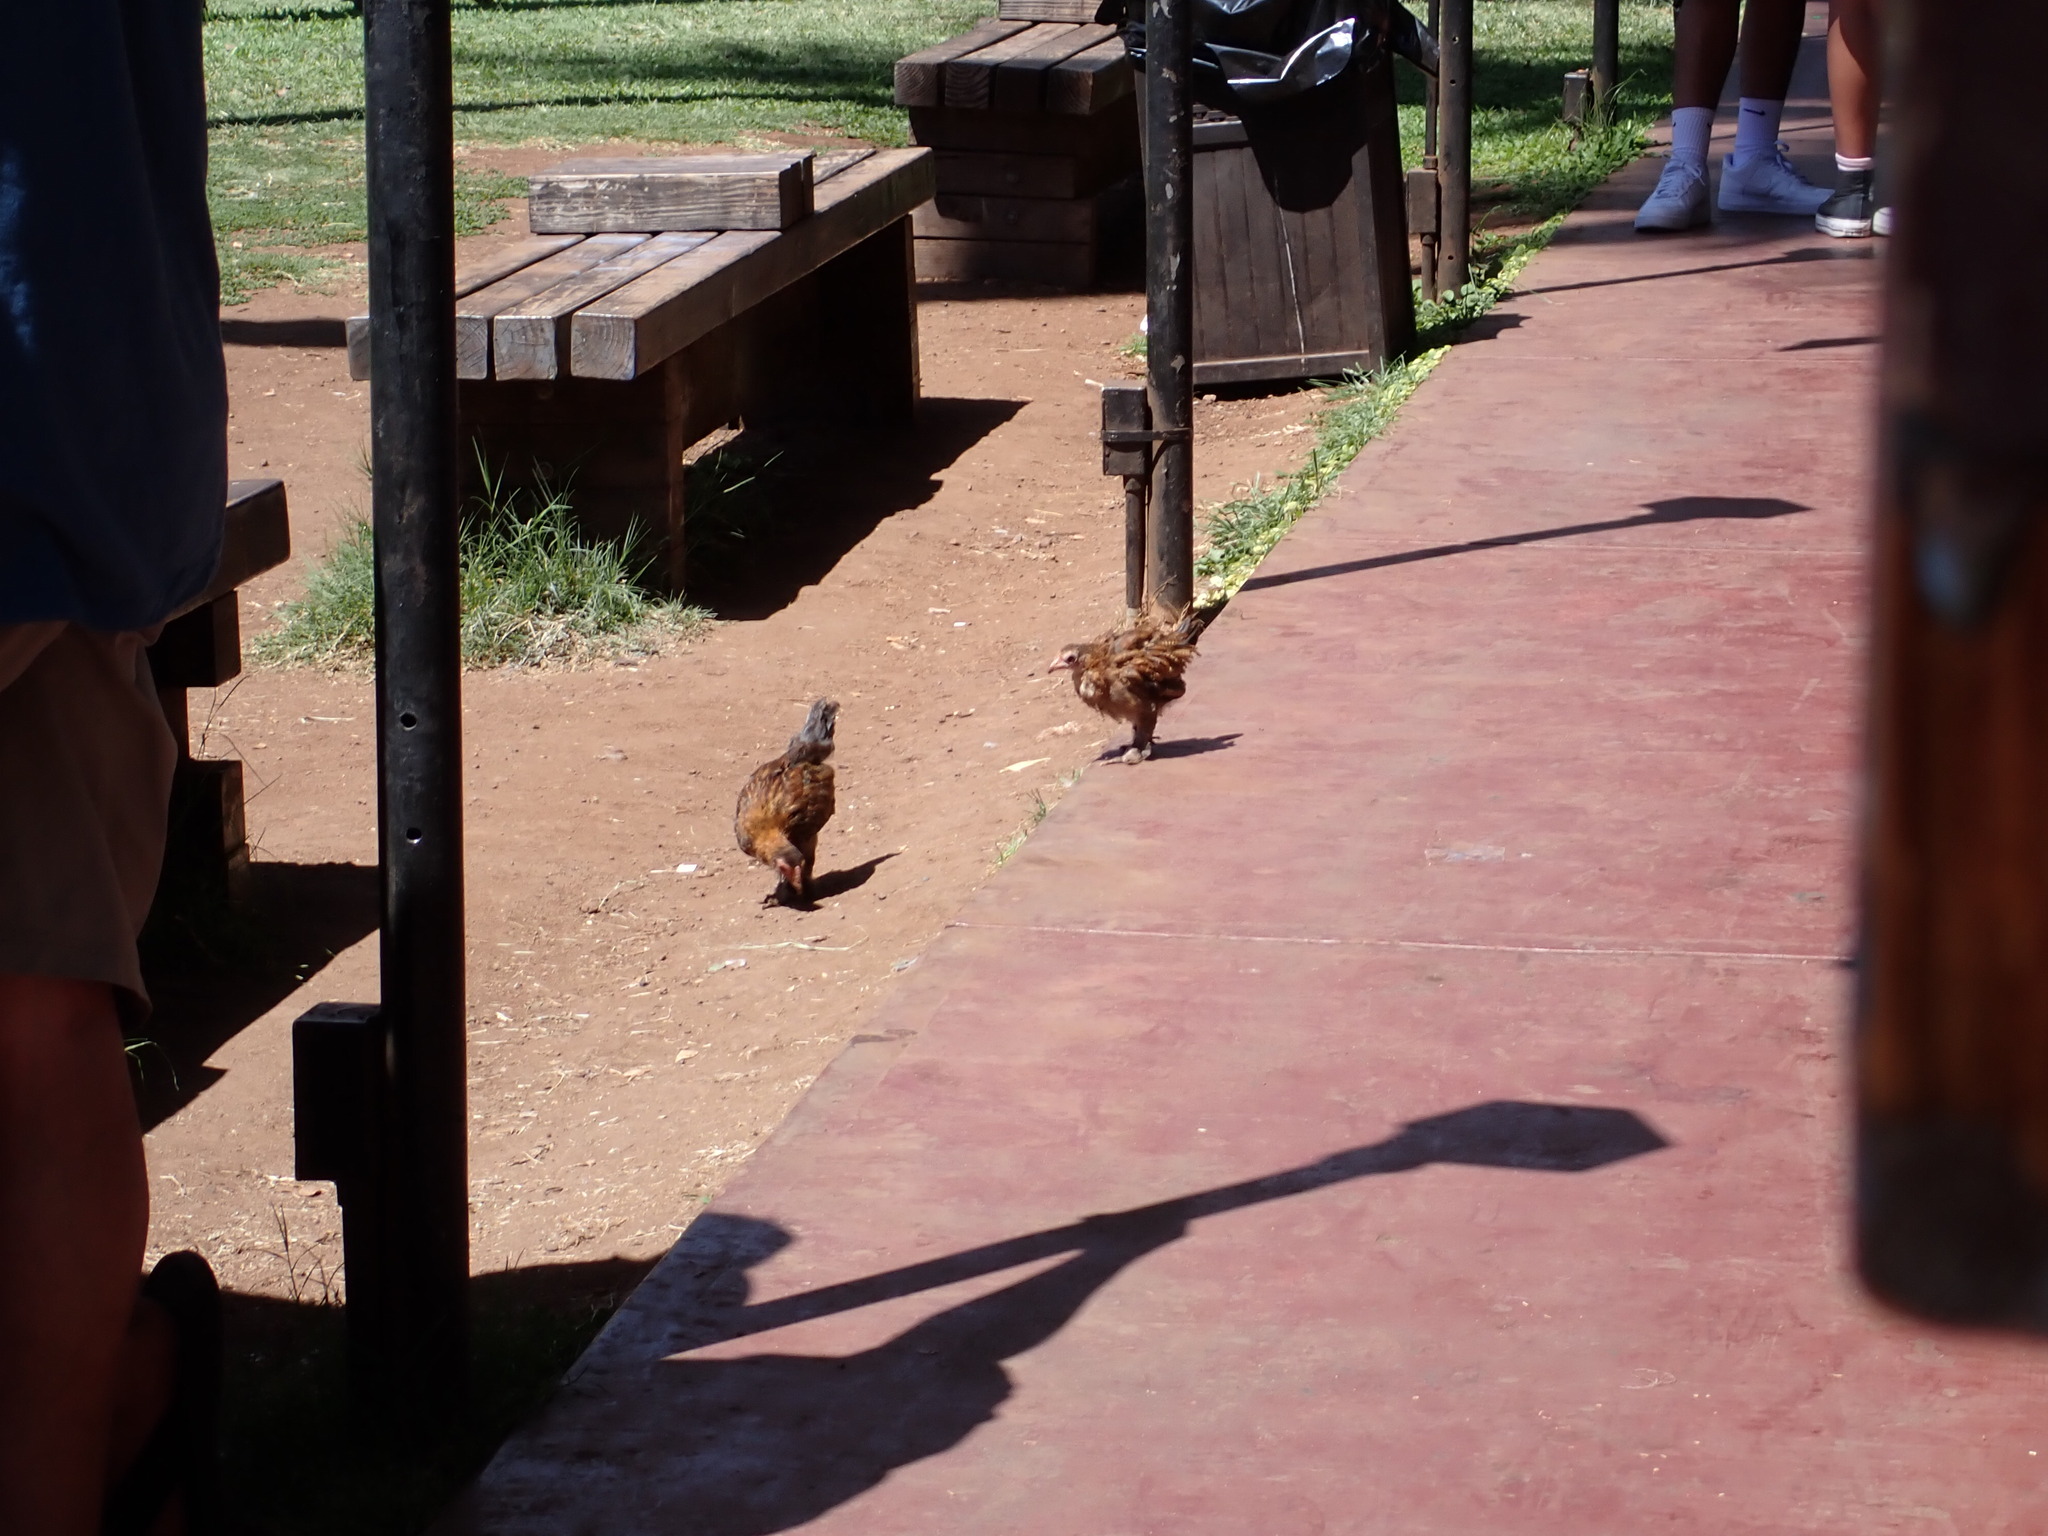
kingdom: Animalia
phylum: Chordata
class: Aves
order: Galliformes
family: Phasianidae
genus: Gallus
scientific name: Gallus gallus
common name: Red junglefowl
